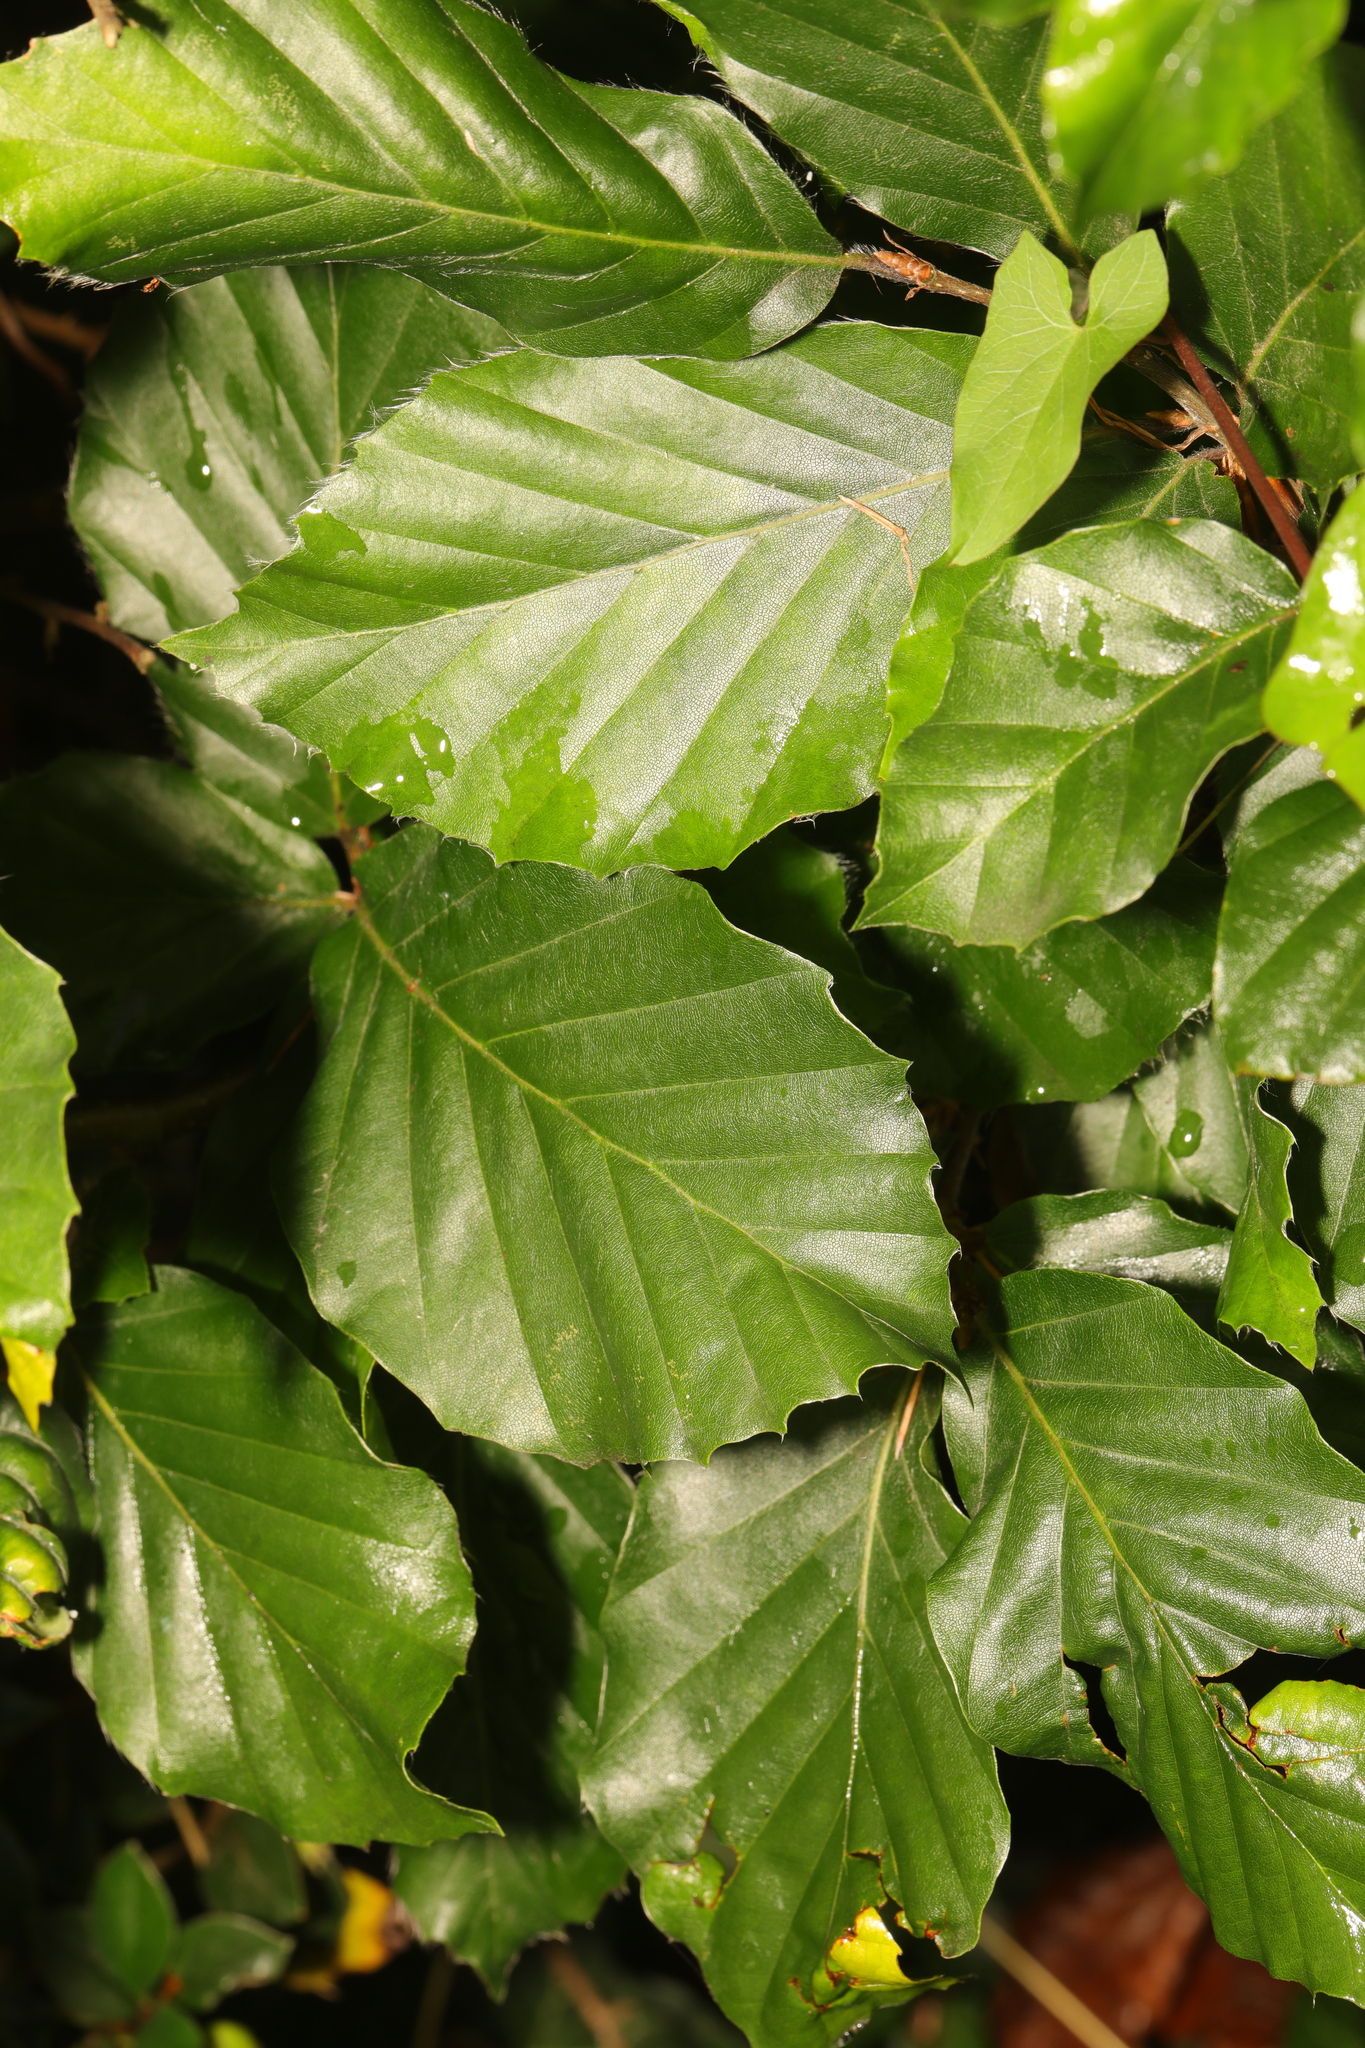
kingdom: Plantae
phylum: Tracheophyta
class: Magnoliopsida
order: Fagales
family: Fagaceae
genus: Fagus
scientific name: Fagus sylvatica
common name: Beech
